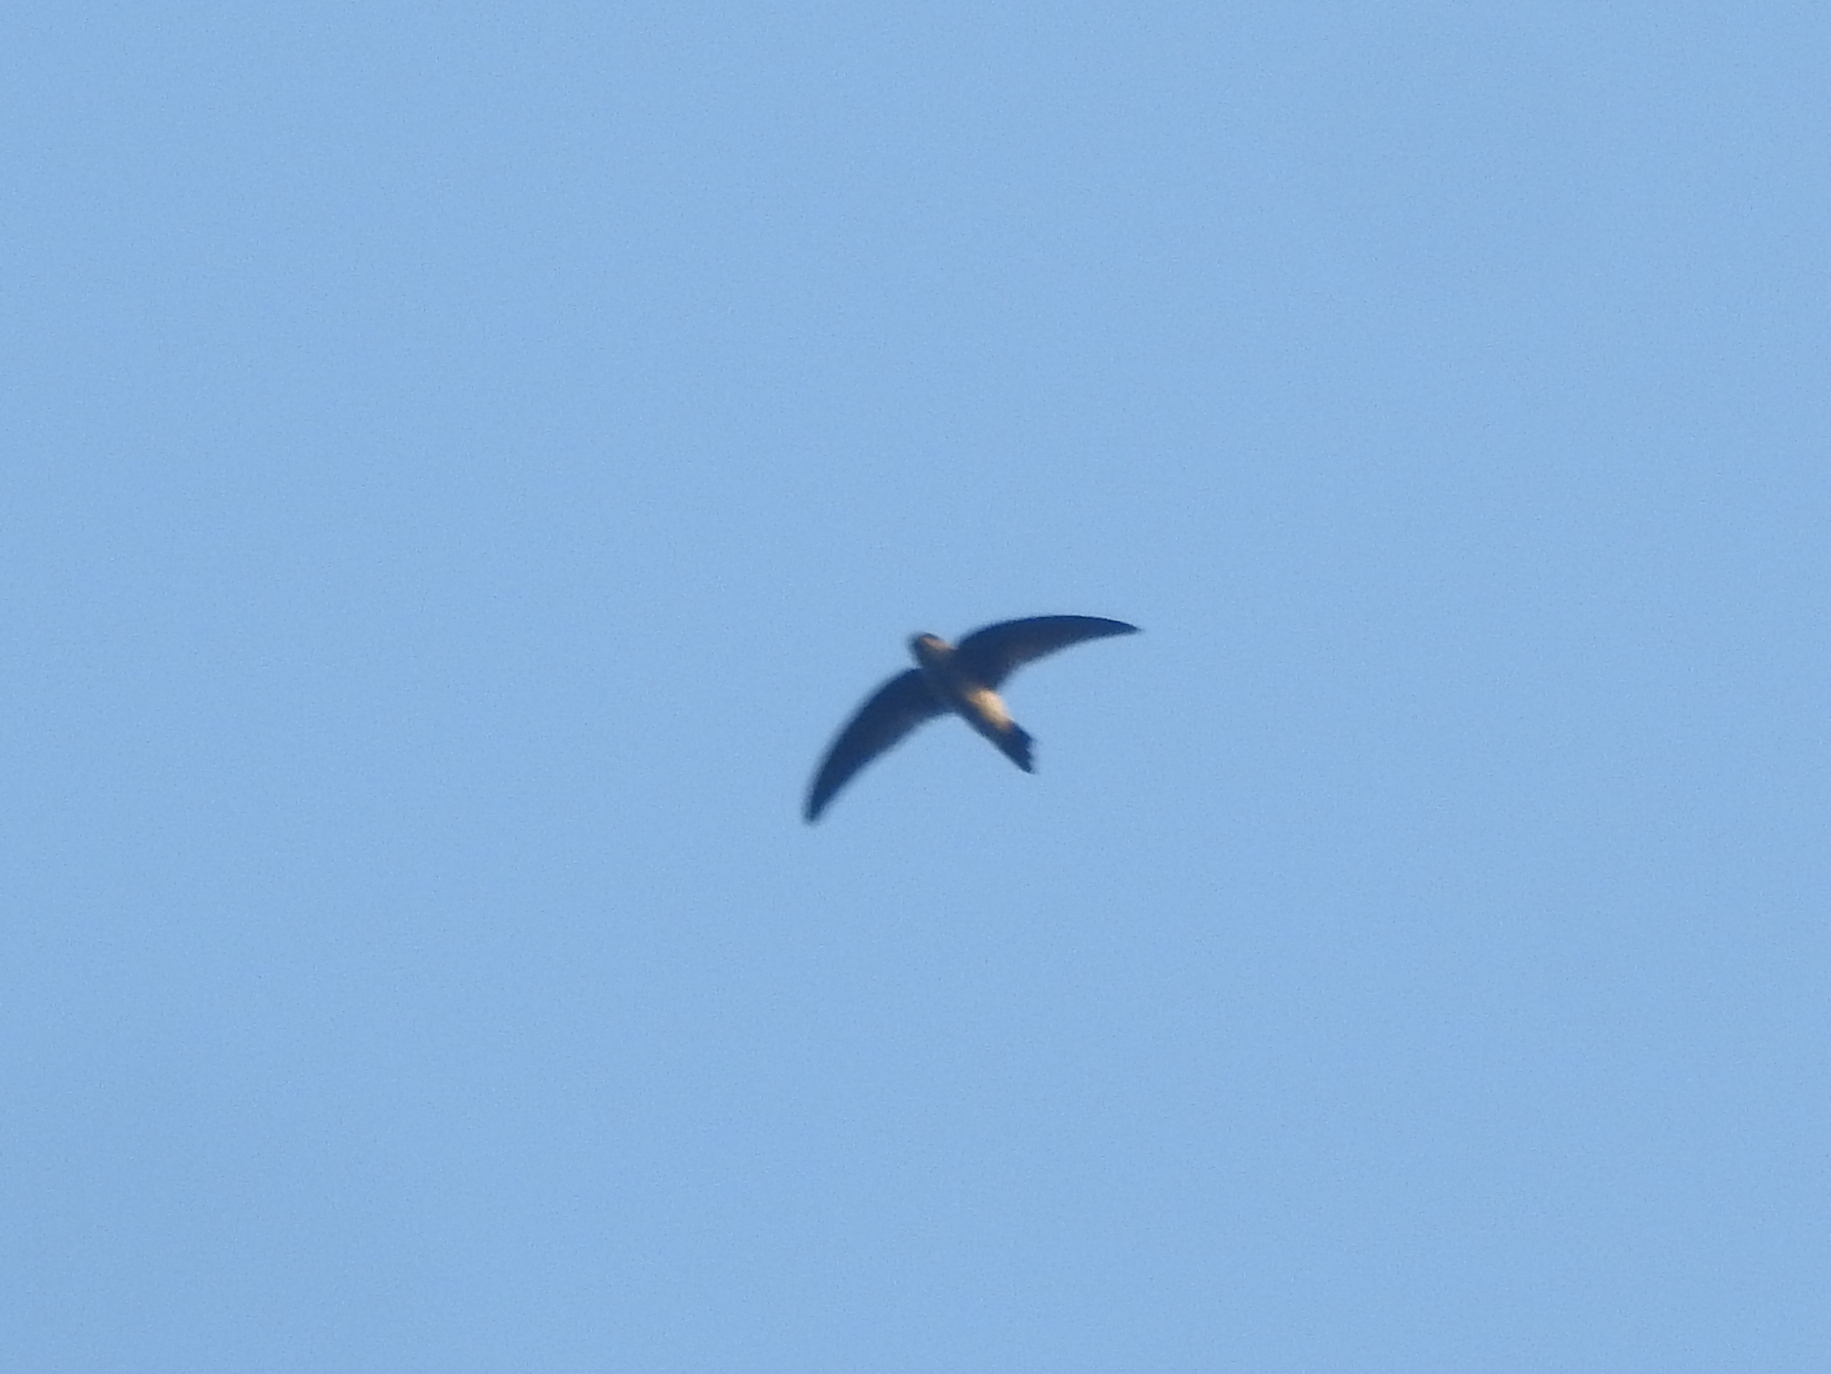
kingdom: Animalia
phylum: Chordata
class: Aves
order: Apodiformes
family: Apodidae
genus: Aerodramus
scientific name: Aerodramus
